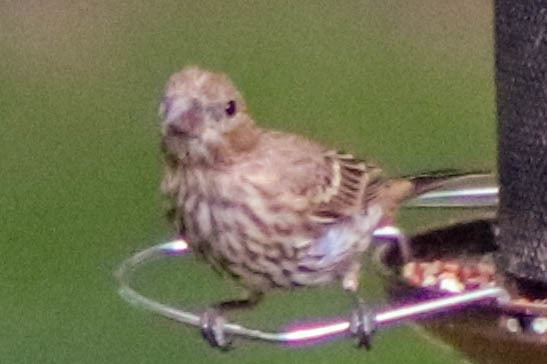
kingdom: Animalia
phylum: Chordata
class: Aves
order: Passeriformes
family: Fringillidae
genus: Haemorhous
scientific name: Haemorhous mexicanus
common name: House finch
